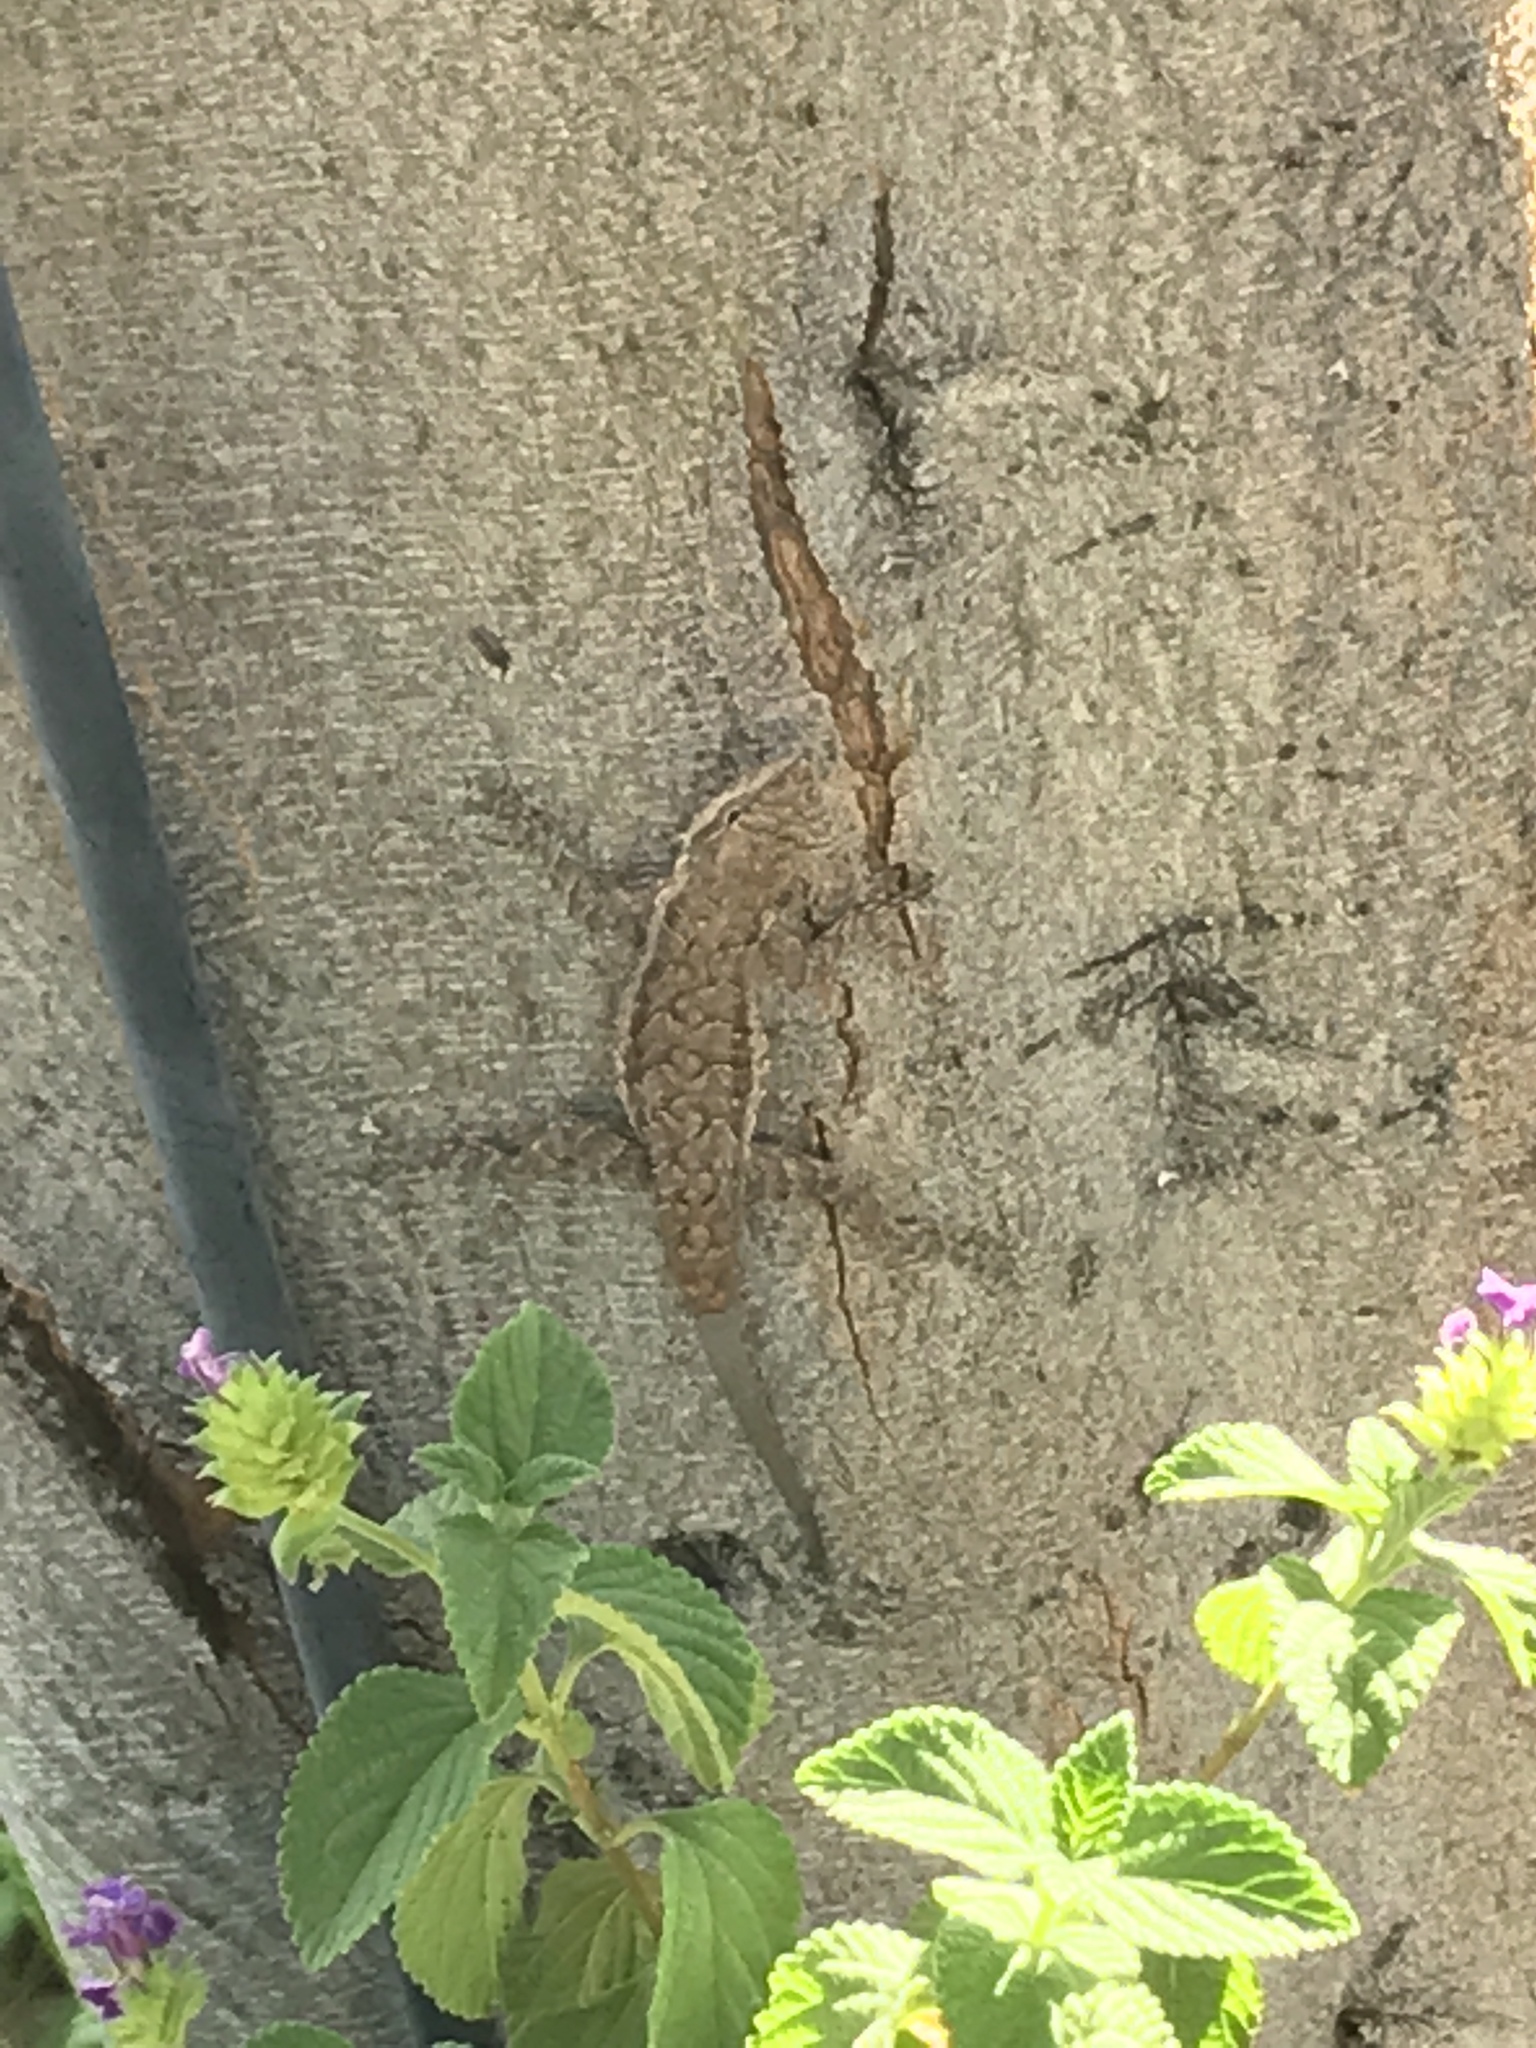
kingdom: Animalia
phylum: Chordata
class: Squamata
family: Phrynosomatidae
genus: Urosaurus
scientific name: Urosaurus ornatus
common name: Ornate tree lizard
